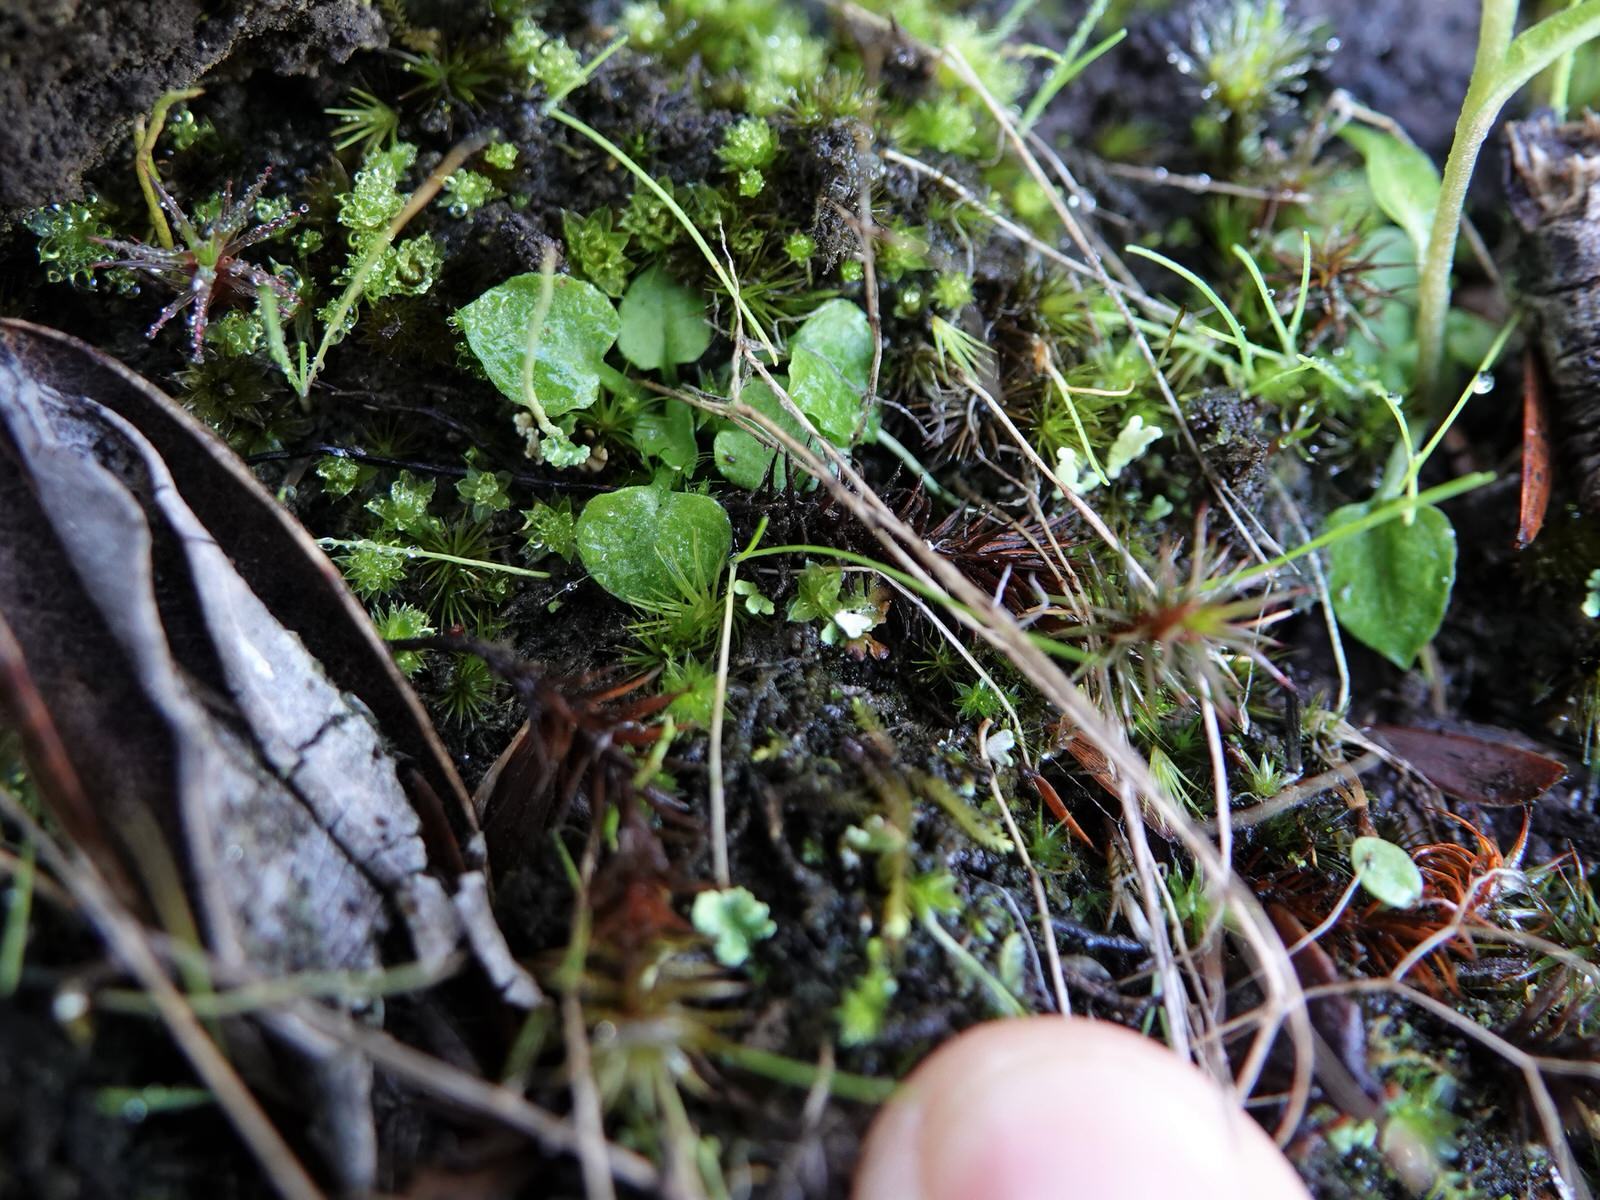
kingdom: Plantae
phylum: Tracheophyta
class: Liliopsida
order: Asparagales
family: Orchidaceae
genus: Pterostylis
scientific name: Pterostylis alobula
